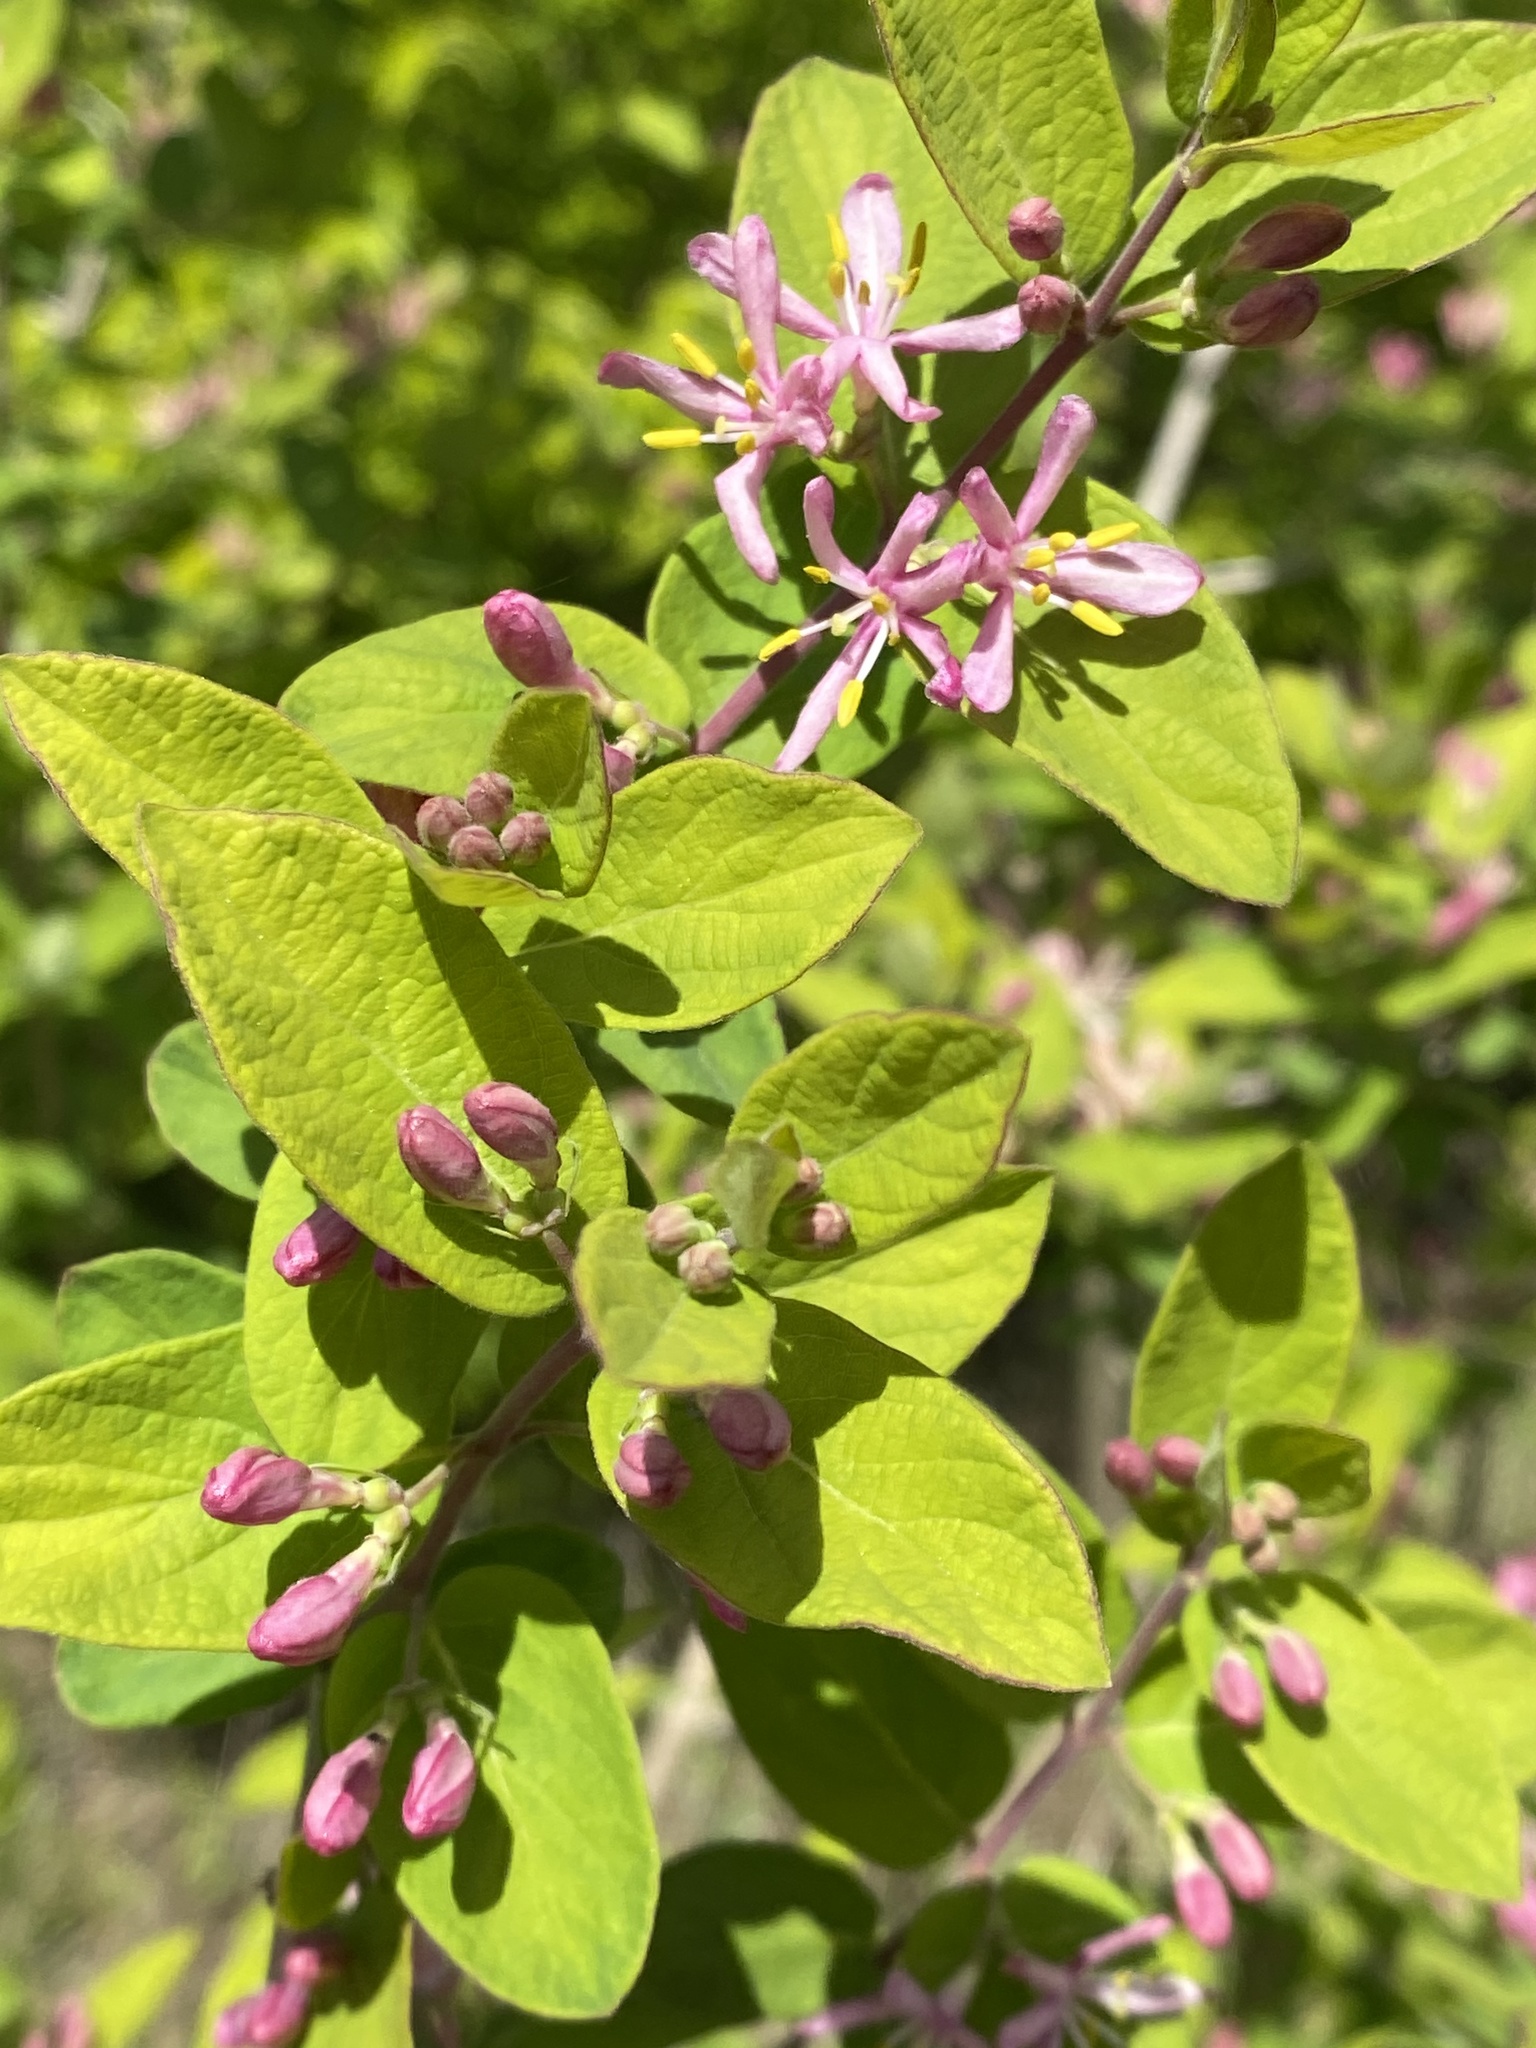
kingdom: Plantae
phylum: Tracheophyta
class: Magnoliopsida
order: Dipsacales
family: Caprifoliaceae
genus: Lonicera
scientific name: Lonicera bella
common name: Bell's honeysuckle
